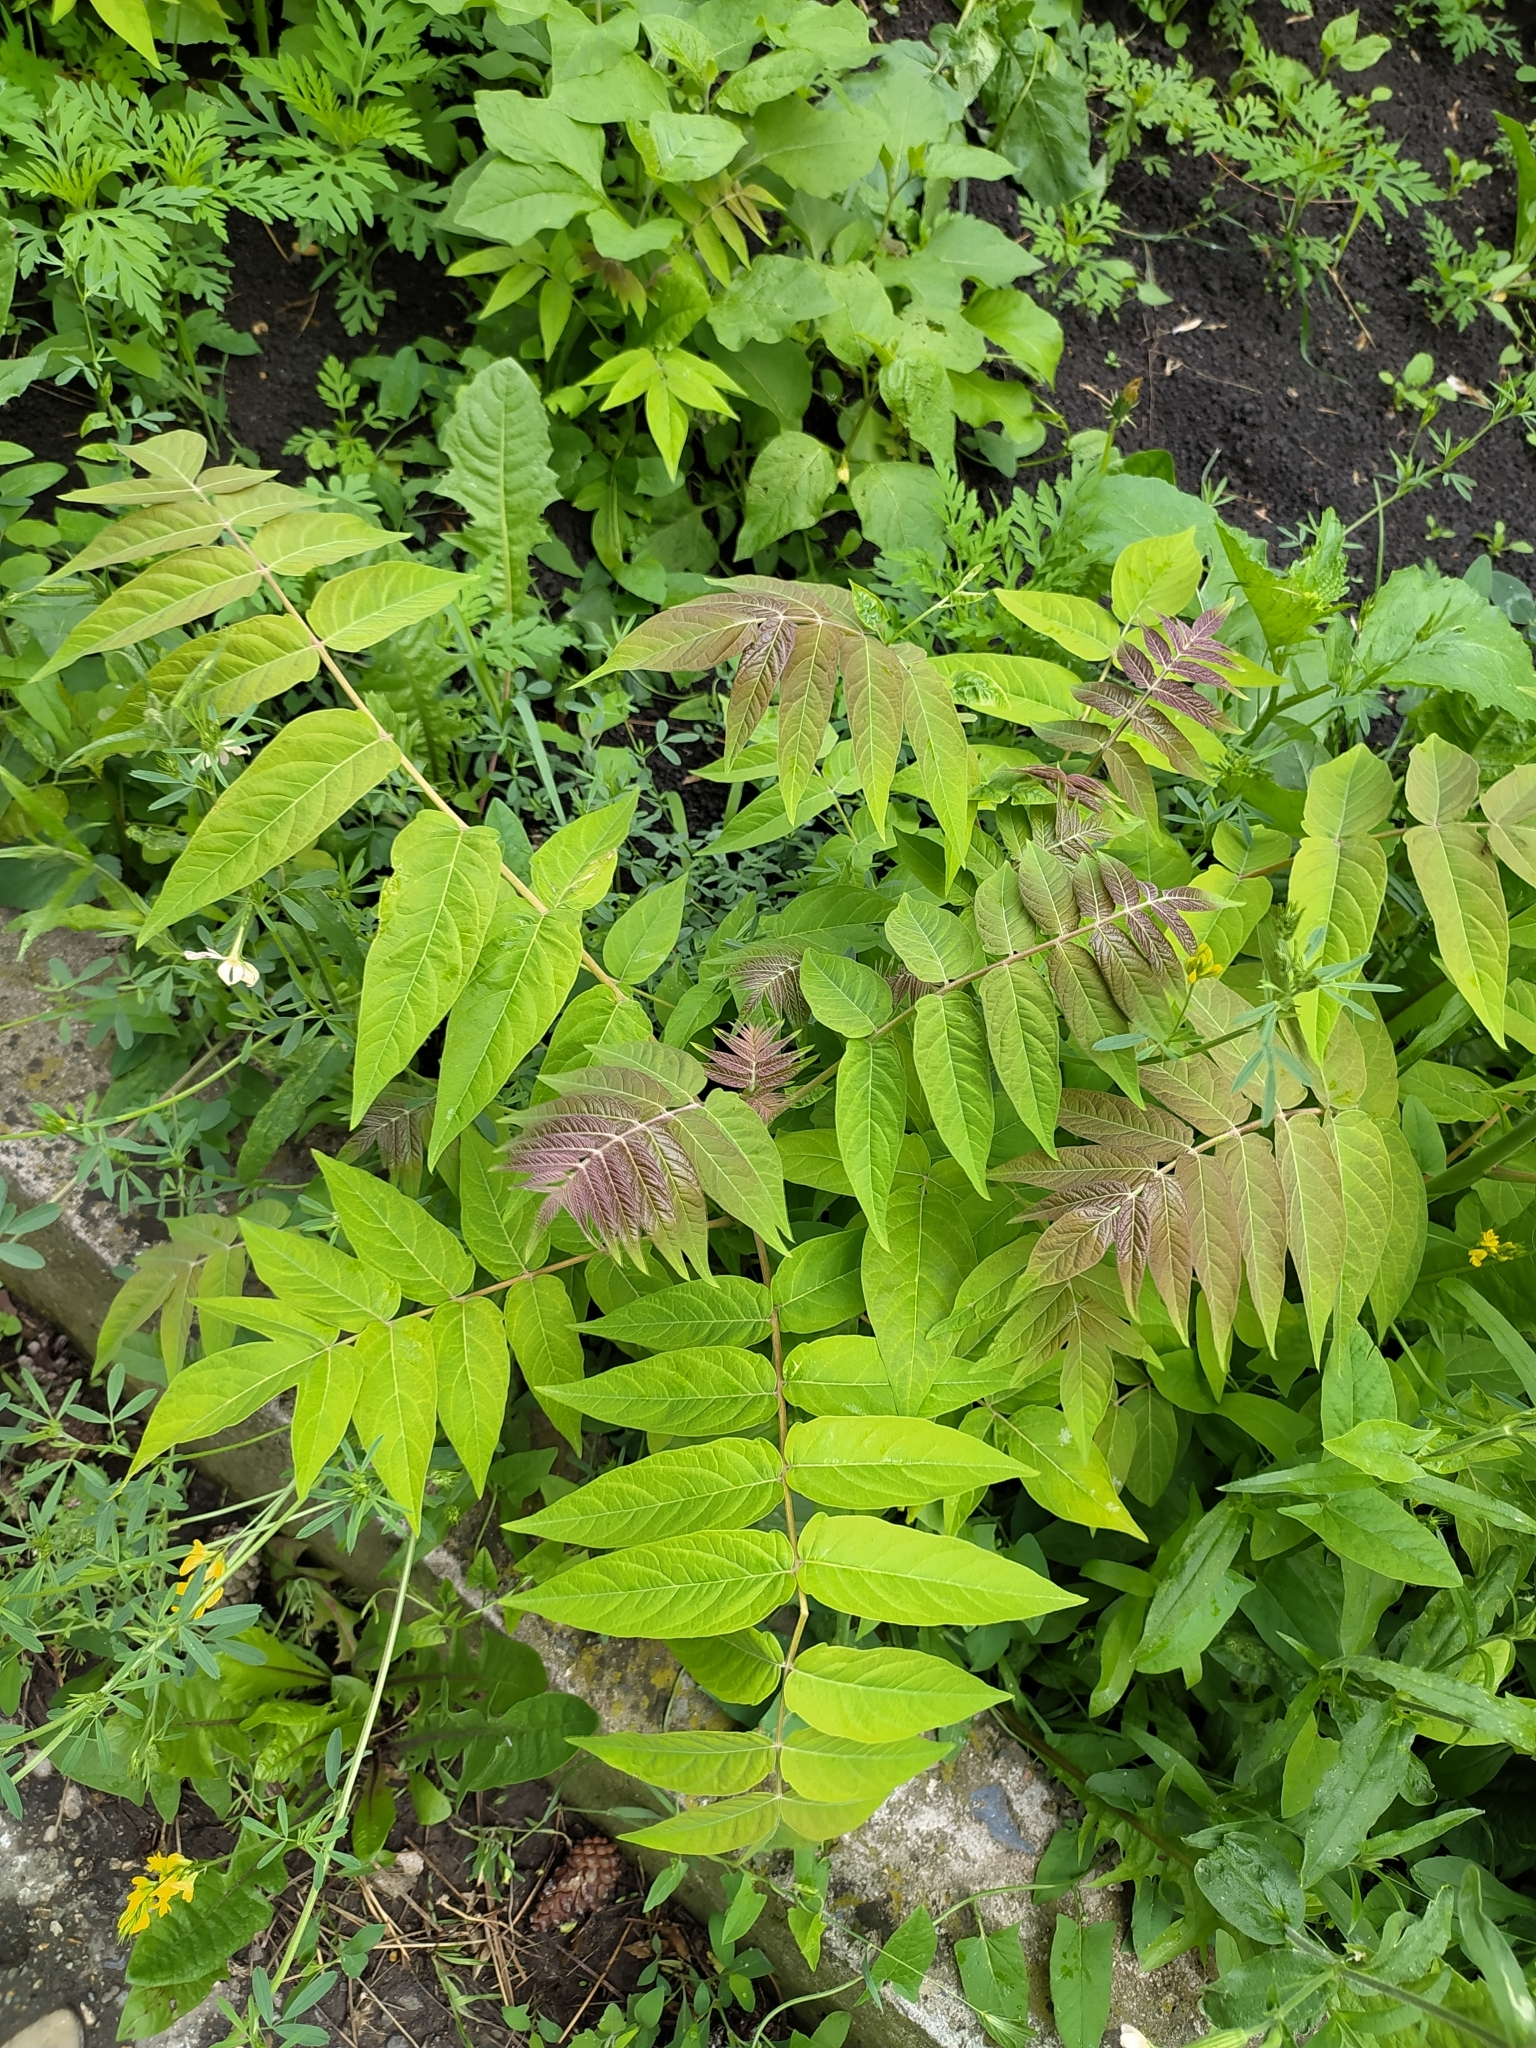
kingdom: Plantae
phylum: Tracheophyta
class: Magnoliopsida
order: Sapindales
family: Simaroubaceae
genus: Ailanthus
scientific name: Ailanthus altissima
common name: Tree-of-heaven
